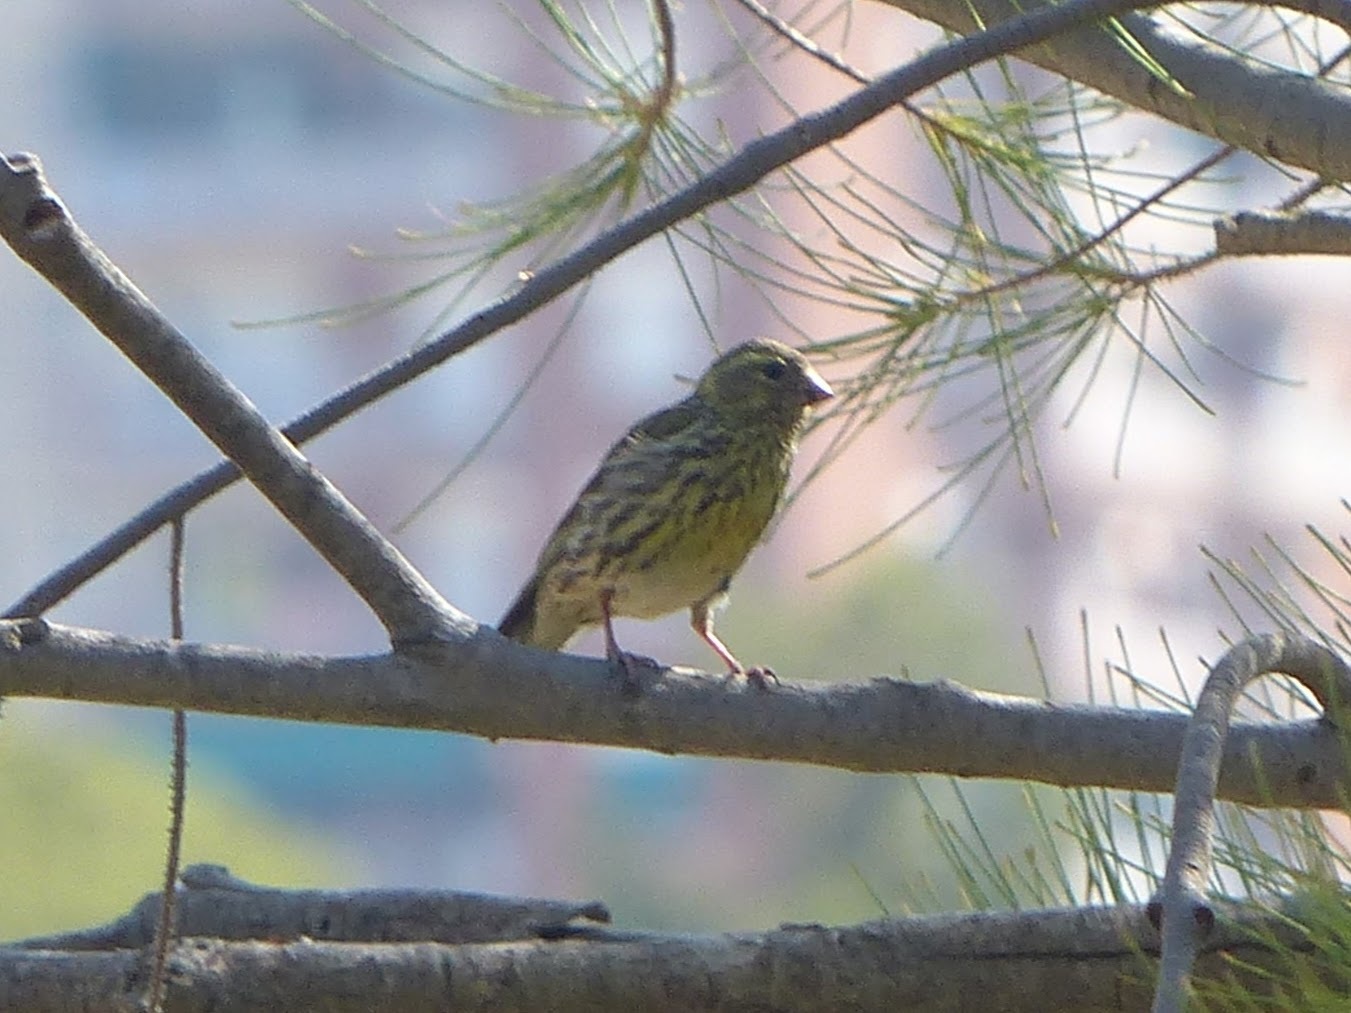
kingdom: Animalia
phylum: Chordata
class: Aves
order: Passeriformes
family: Fringillidae
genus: Serinus
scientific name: Serinus serinus
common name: European serin
